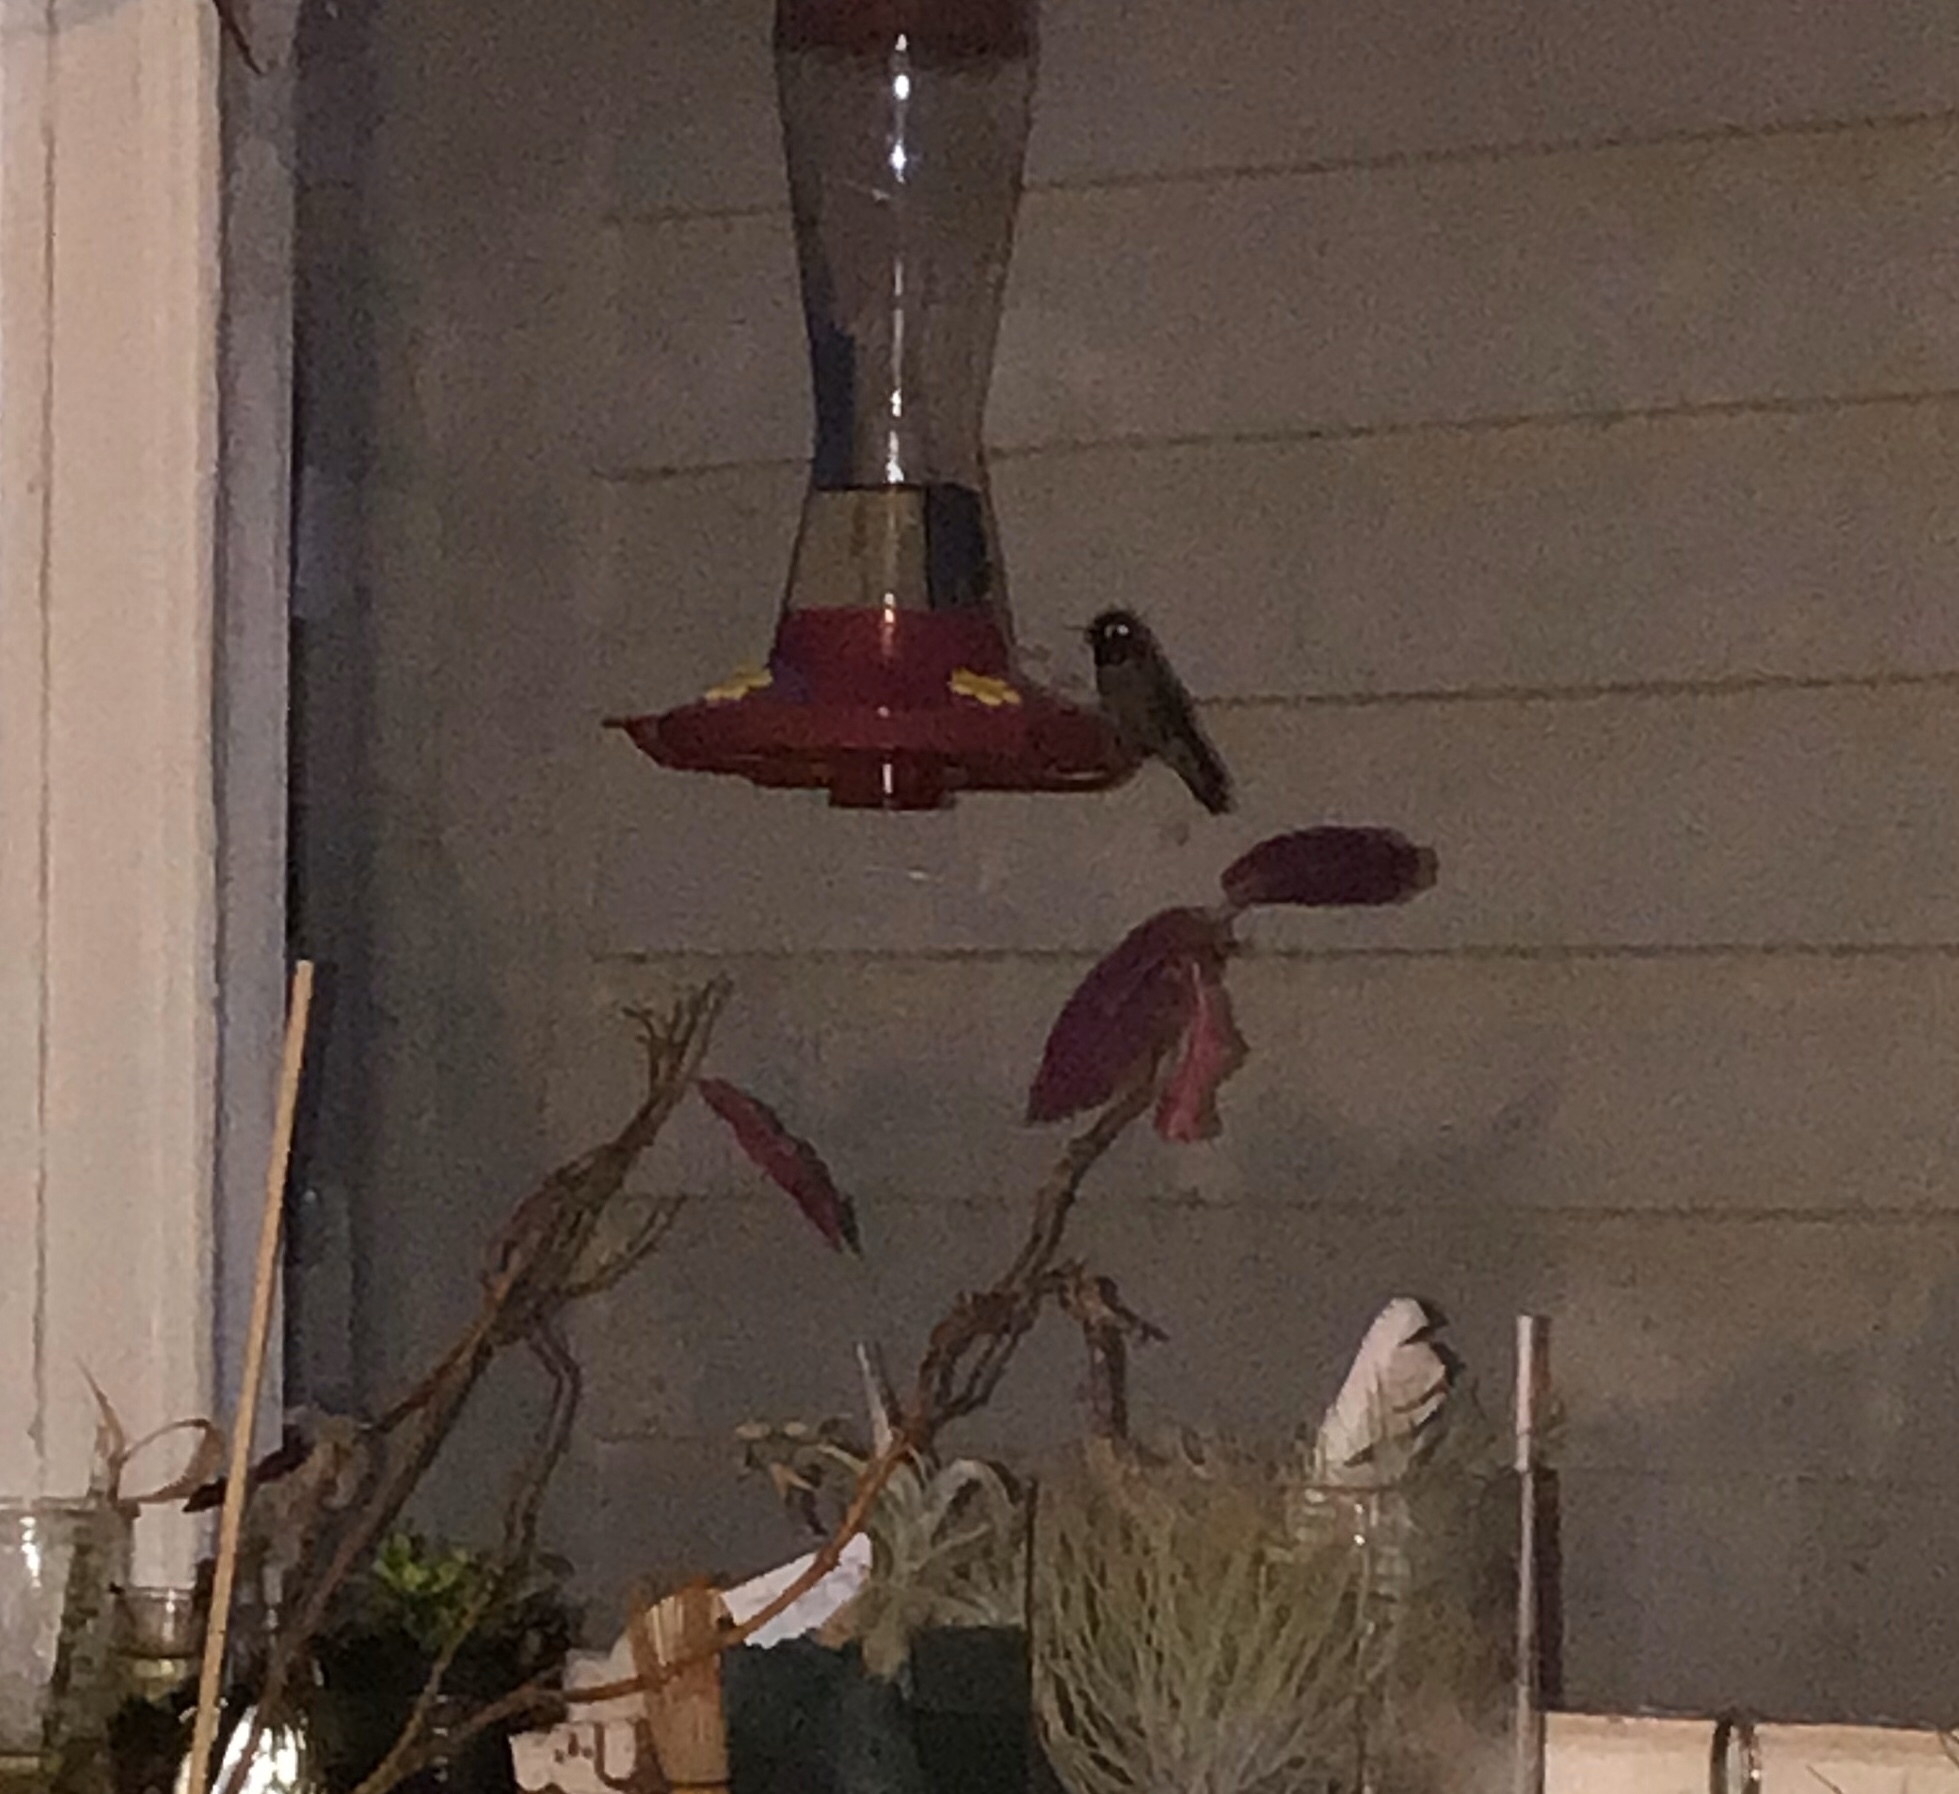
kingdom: Animalia
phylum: Chordata
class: Aves
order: Apodiformes
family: Trochilidae
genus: Calypte
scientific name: Calypte anna
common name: Anna's hummingbird
